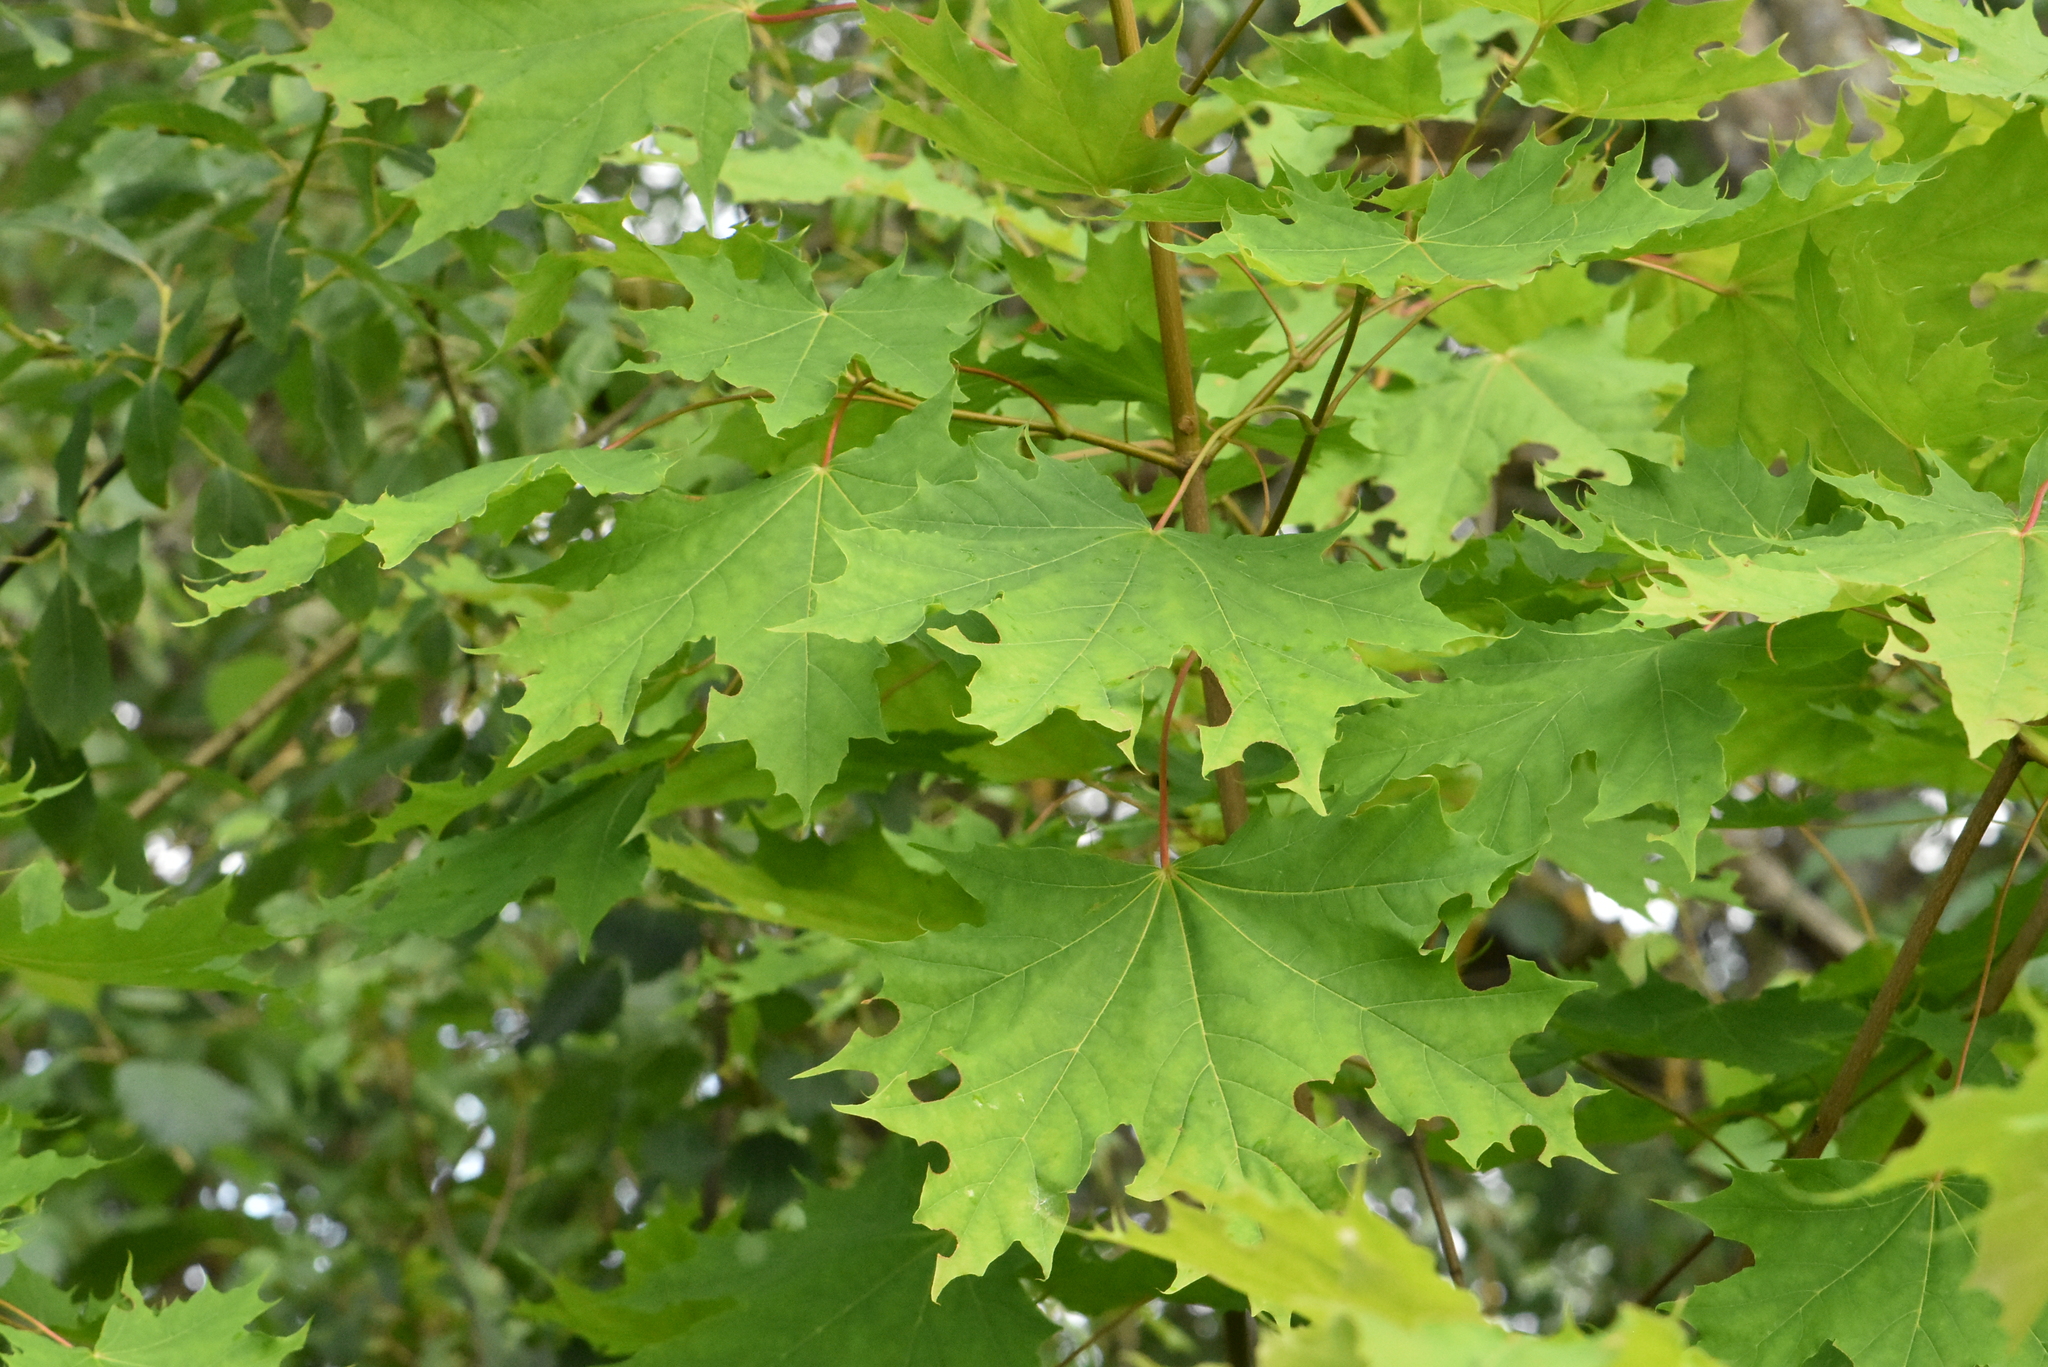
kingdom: Plantae
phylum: Tracheophyta
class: Magnoliopsida
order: Sapindales
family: Sapindaceae
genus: Acer
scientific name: Acer platanoides
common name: Norway maple
